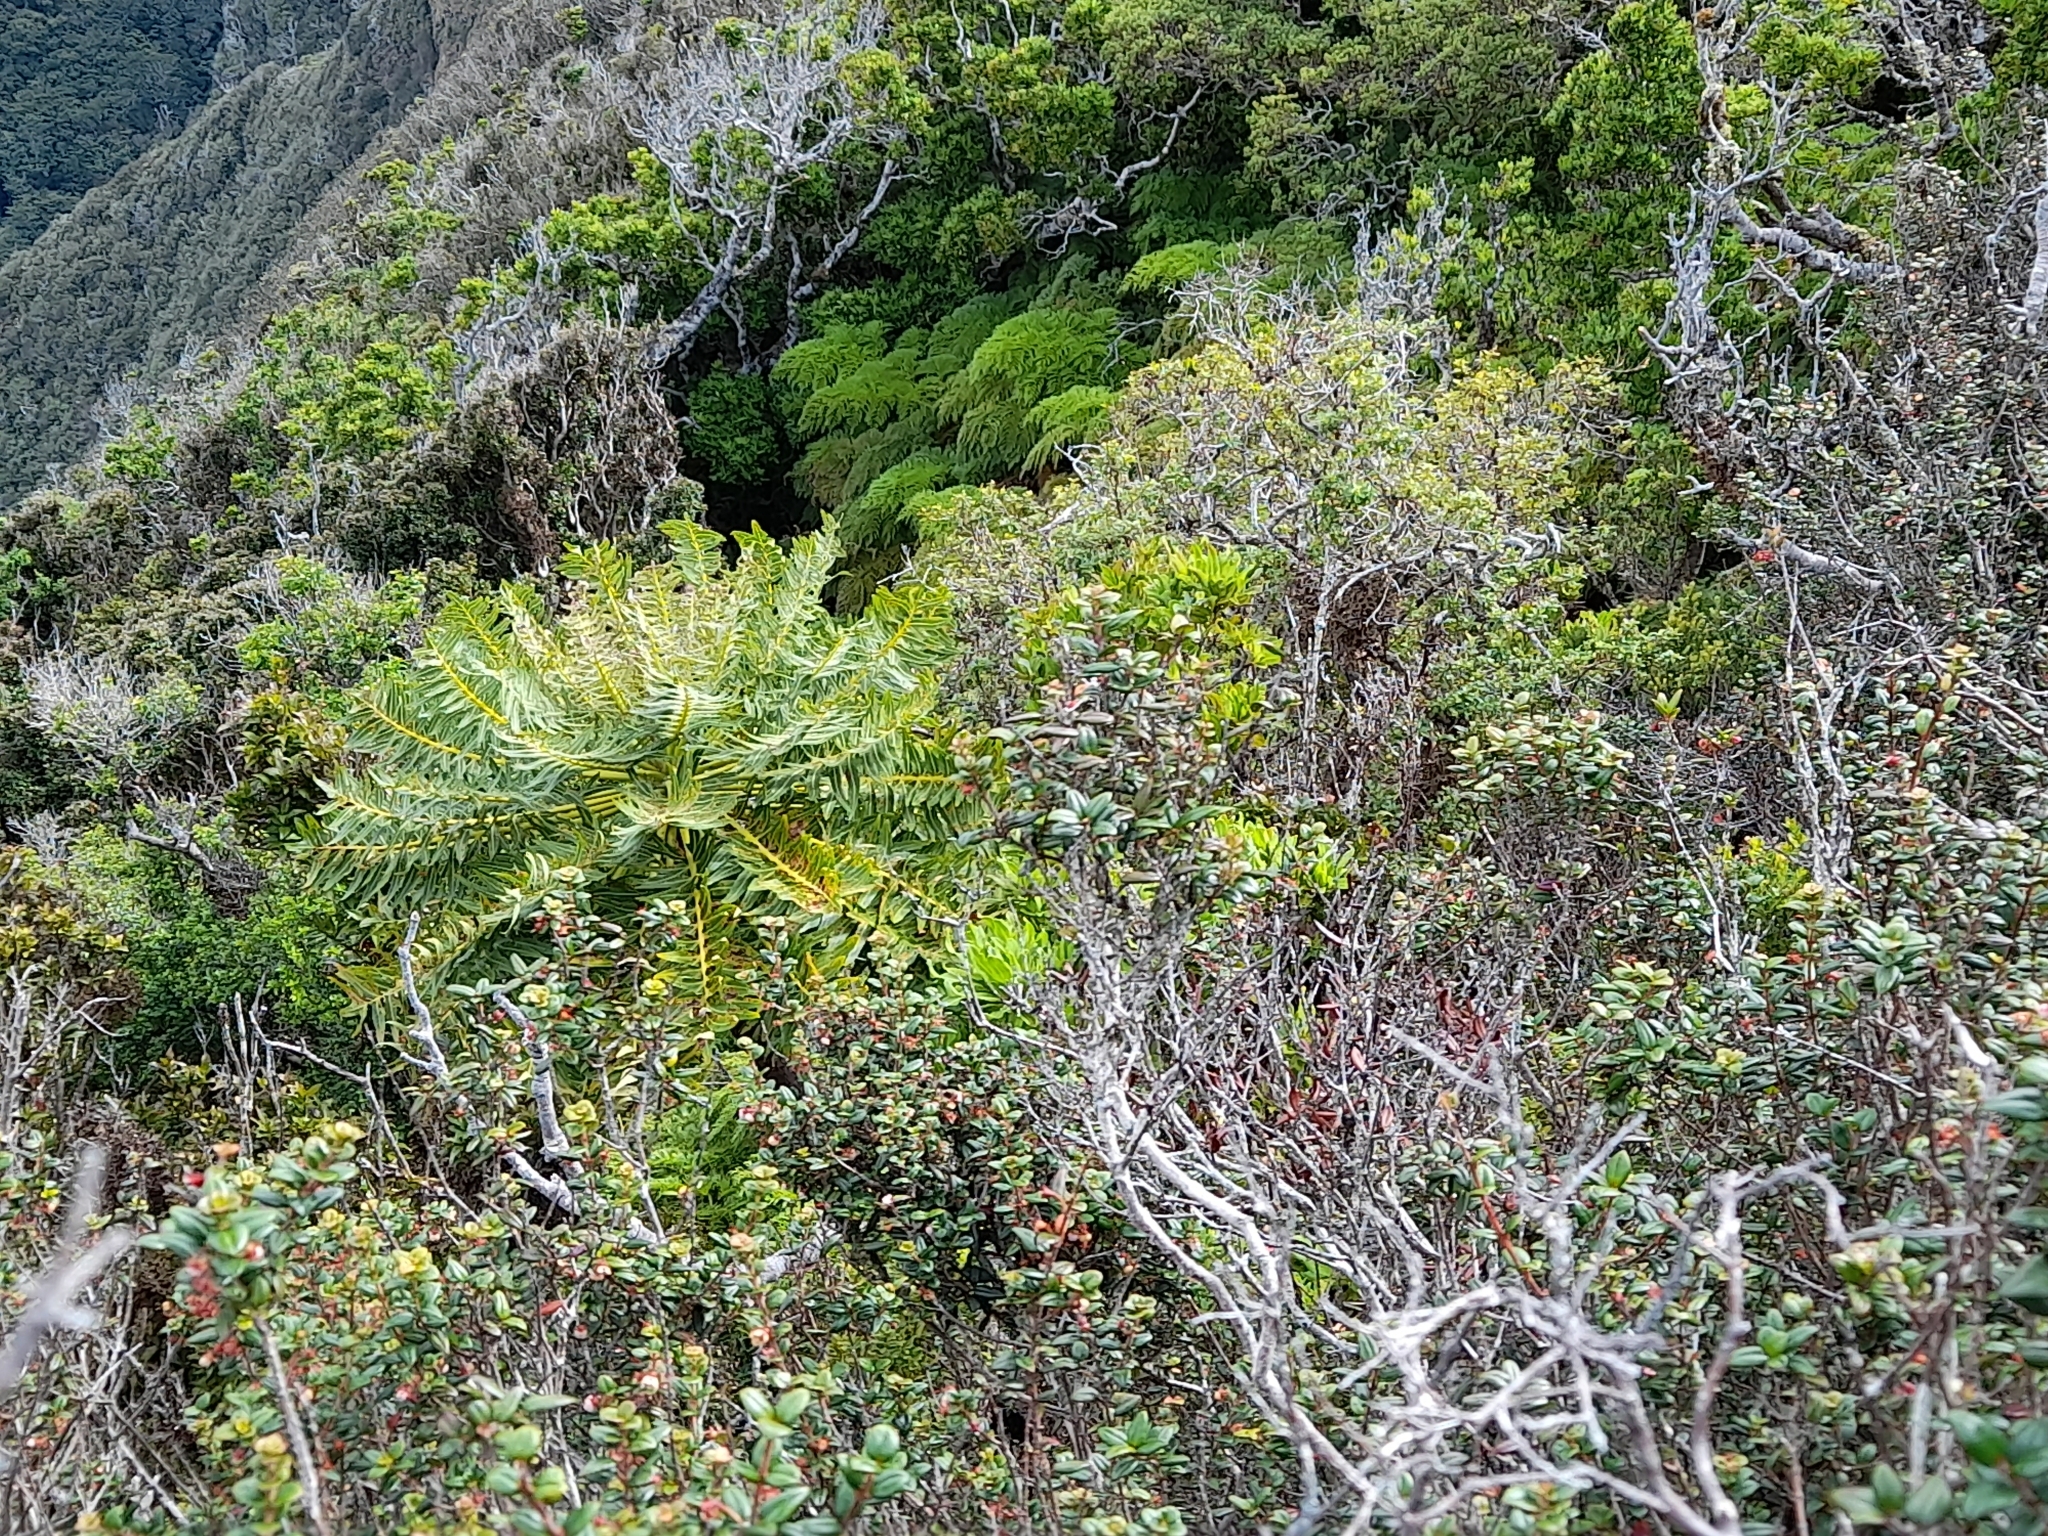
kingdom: Plantae
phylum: Tracheophyta
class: Magnoliopsida
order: Asterales
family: Asteraceae
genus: Sonchus
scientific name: Sonchus phoeniciformis
